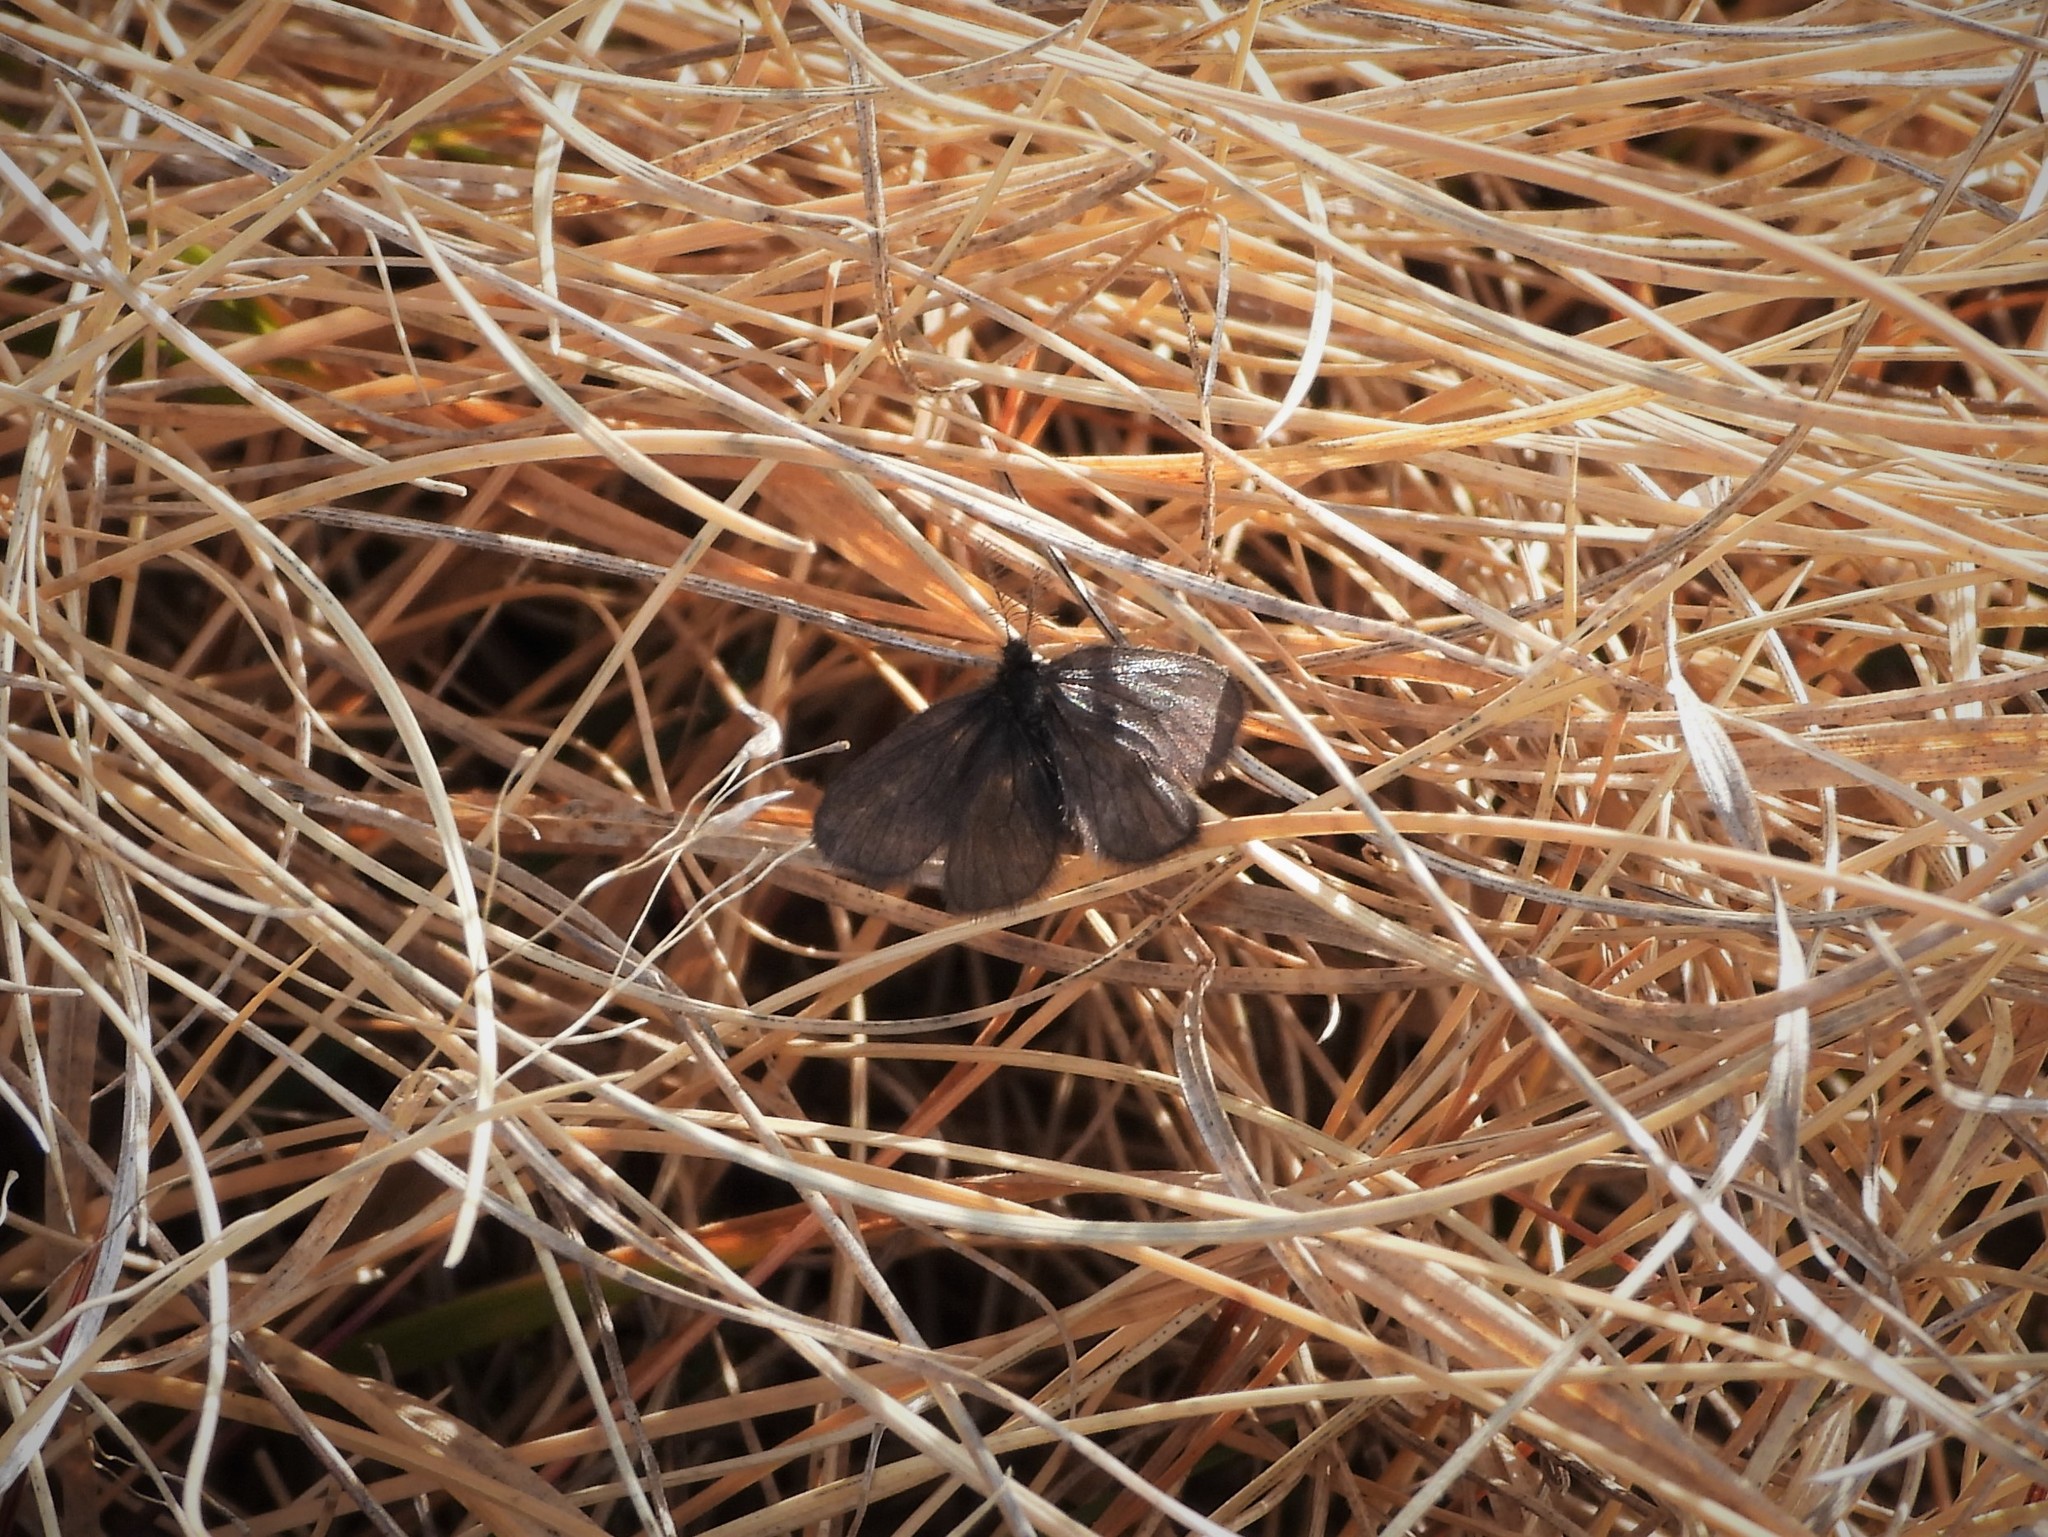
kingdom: Animalia
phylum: Arthropoda
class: Insecta
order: Lepidoptera
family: Psychidae
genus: Epichnopterix
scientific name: Epichnopterix alpina
